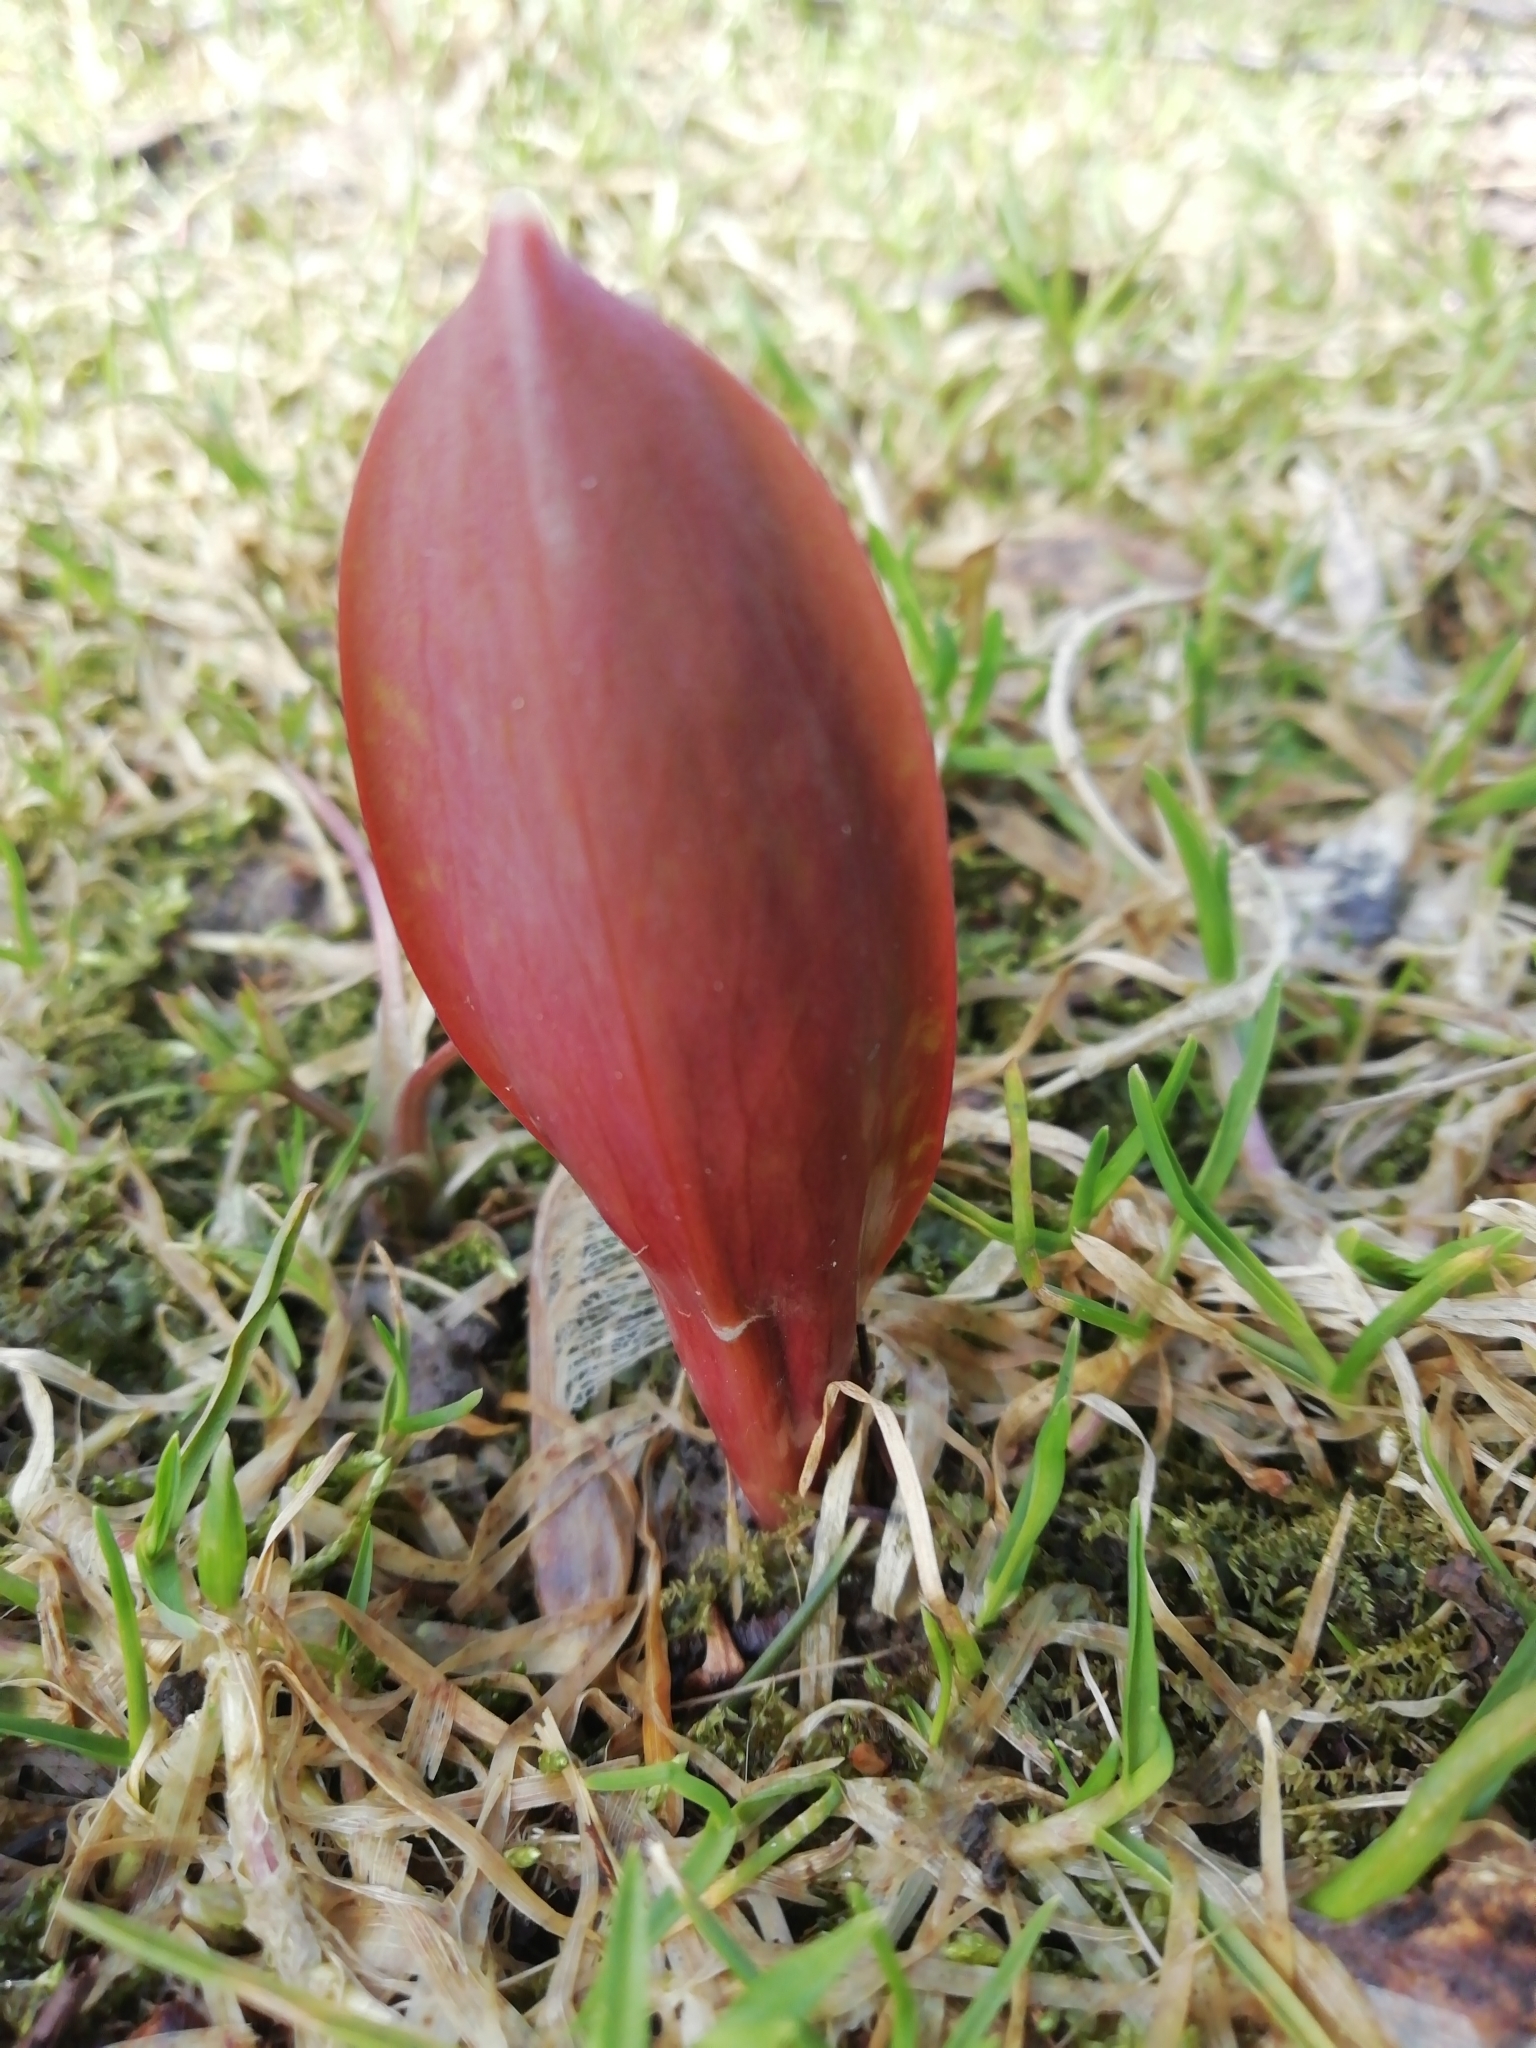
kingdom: Plantae
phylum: Tracheophyta
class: Liliopsida
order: Liliales
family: Liliaceae
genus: Erythronium
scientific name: Erythronium sibiricum
